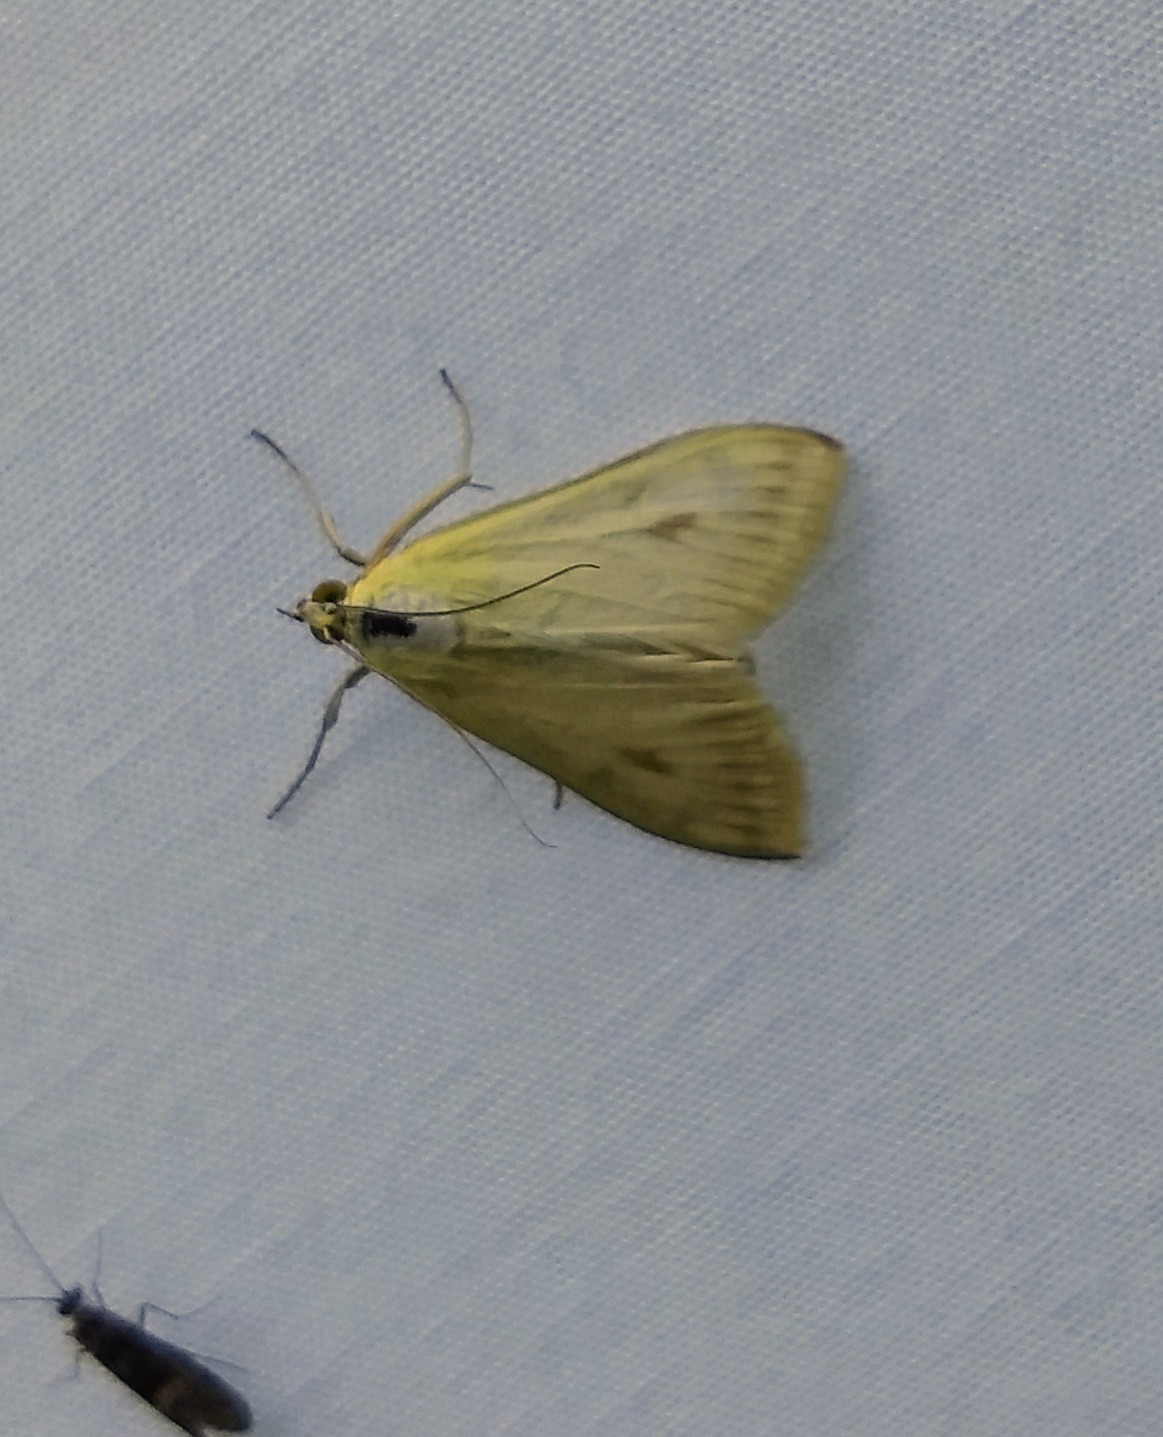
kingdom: Animalia
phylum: Arthropoda
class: Insecta
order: Lepidoptera
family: Crambidae
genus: Sitochroa
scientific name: Sitochroa palealis
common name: Greenish-yellow sitochroa moth
